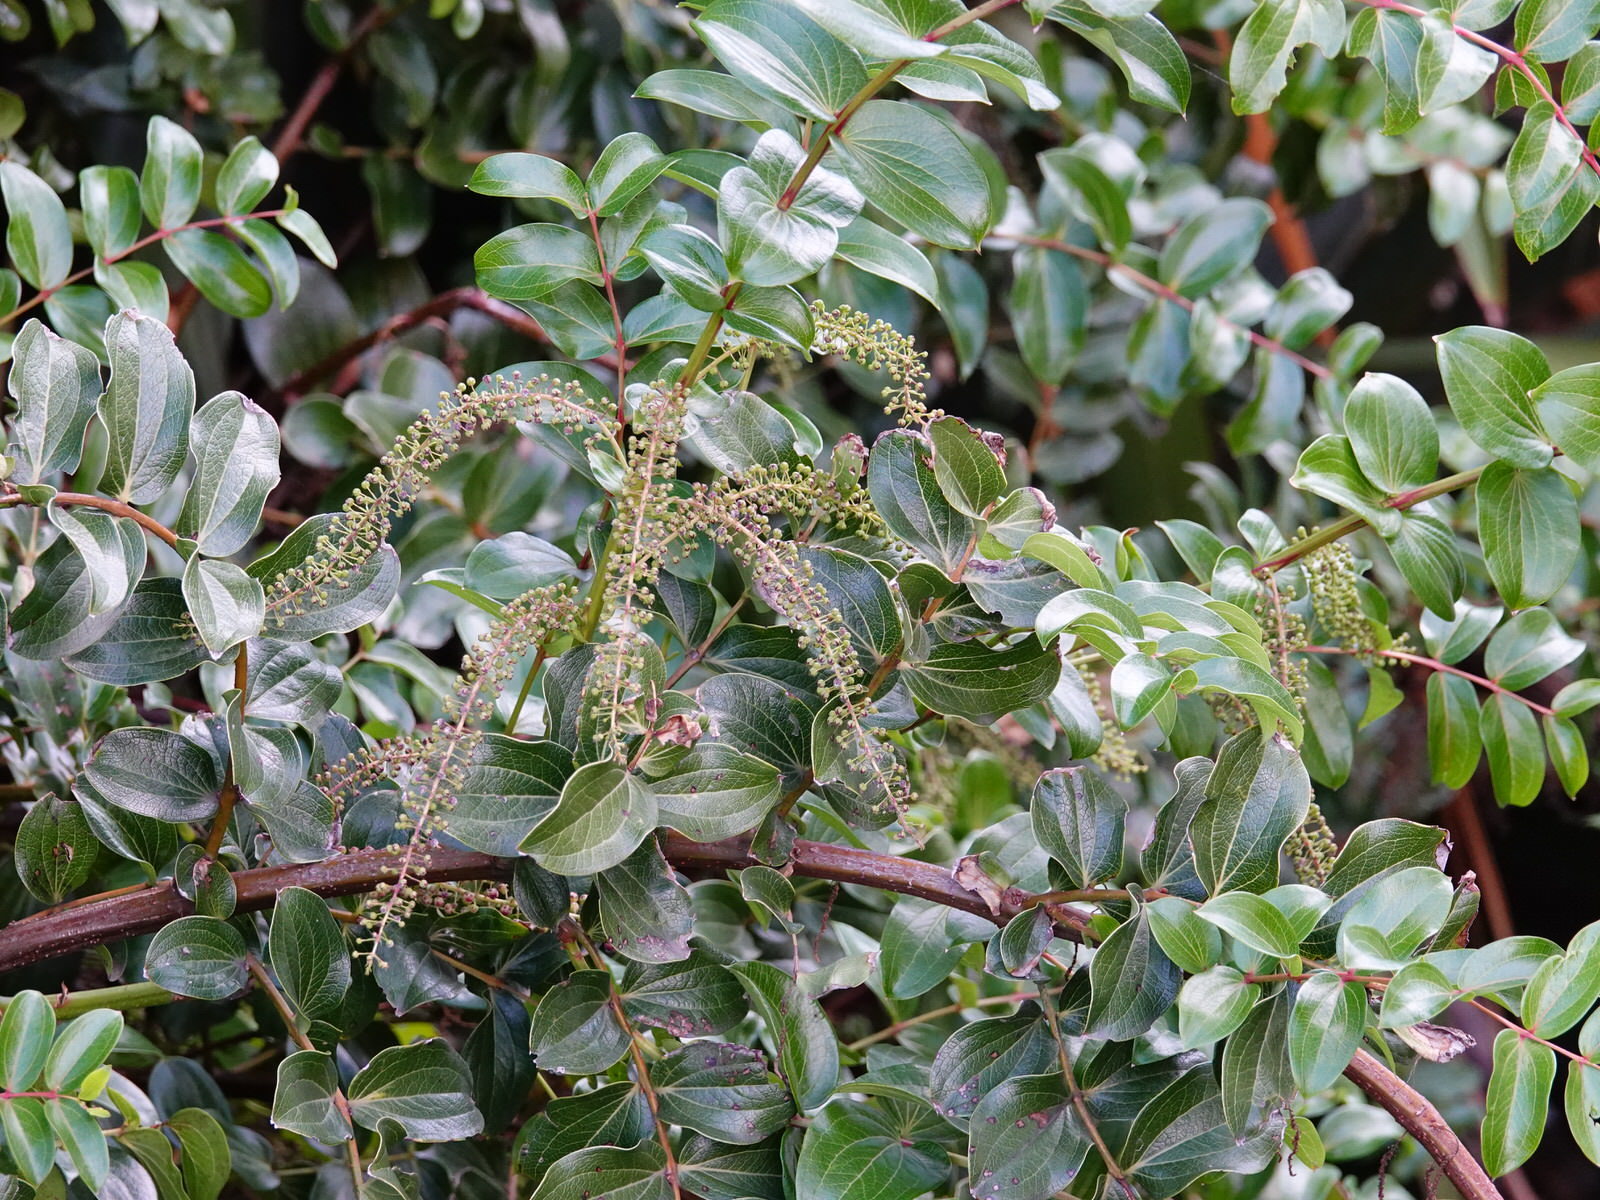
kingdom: Plantae
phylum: Tracheophyta
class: Magnoliopsida
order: Cucurbitales
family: Coriariaceae
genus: Coriaria
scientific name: Coriaria arborea
